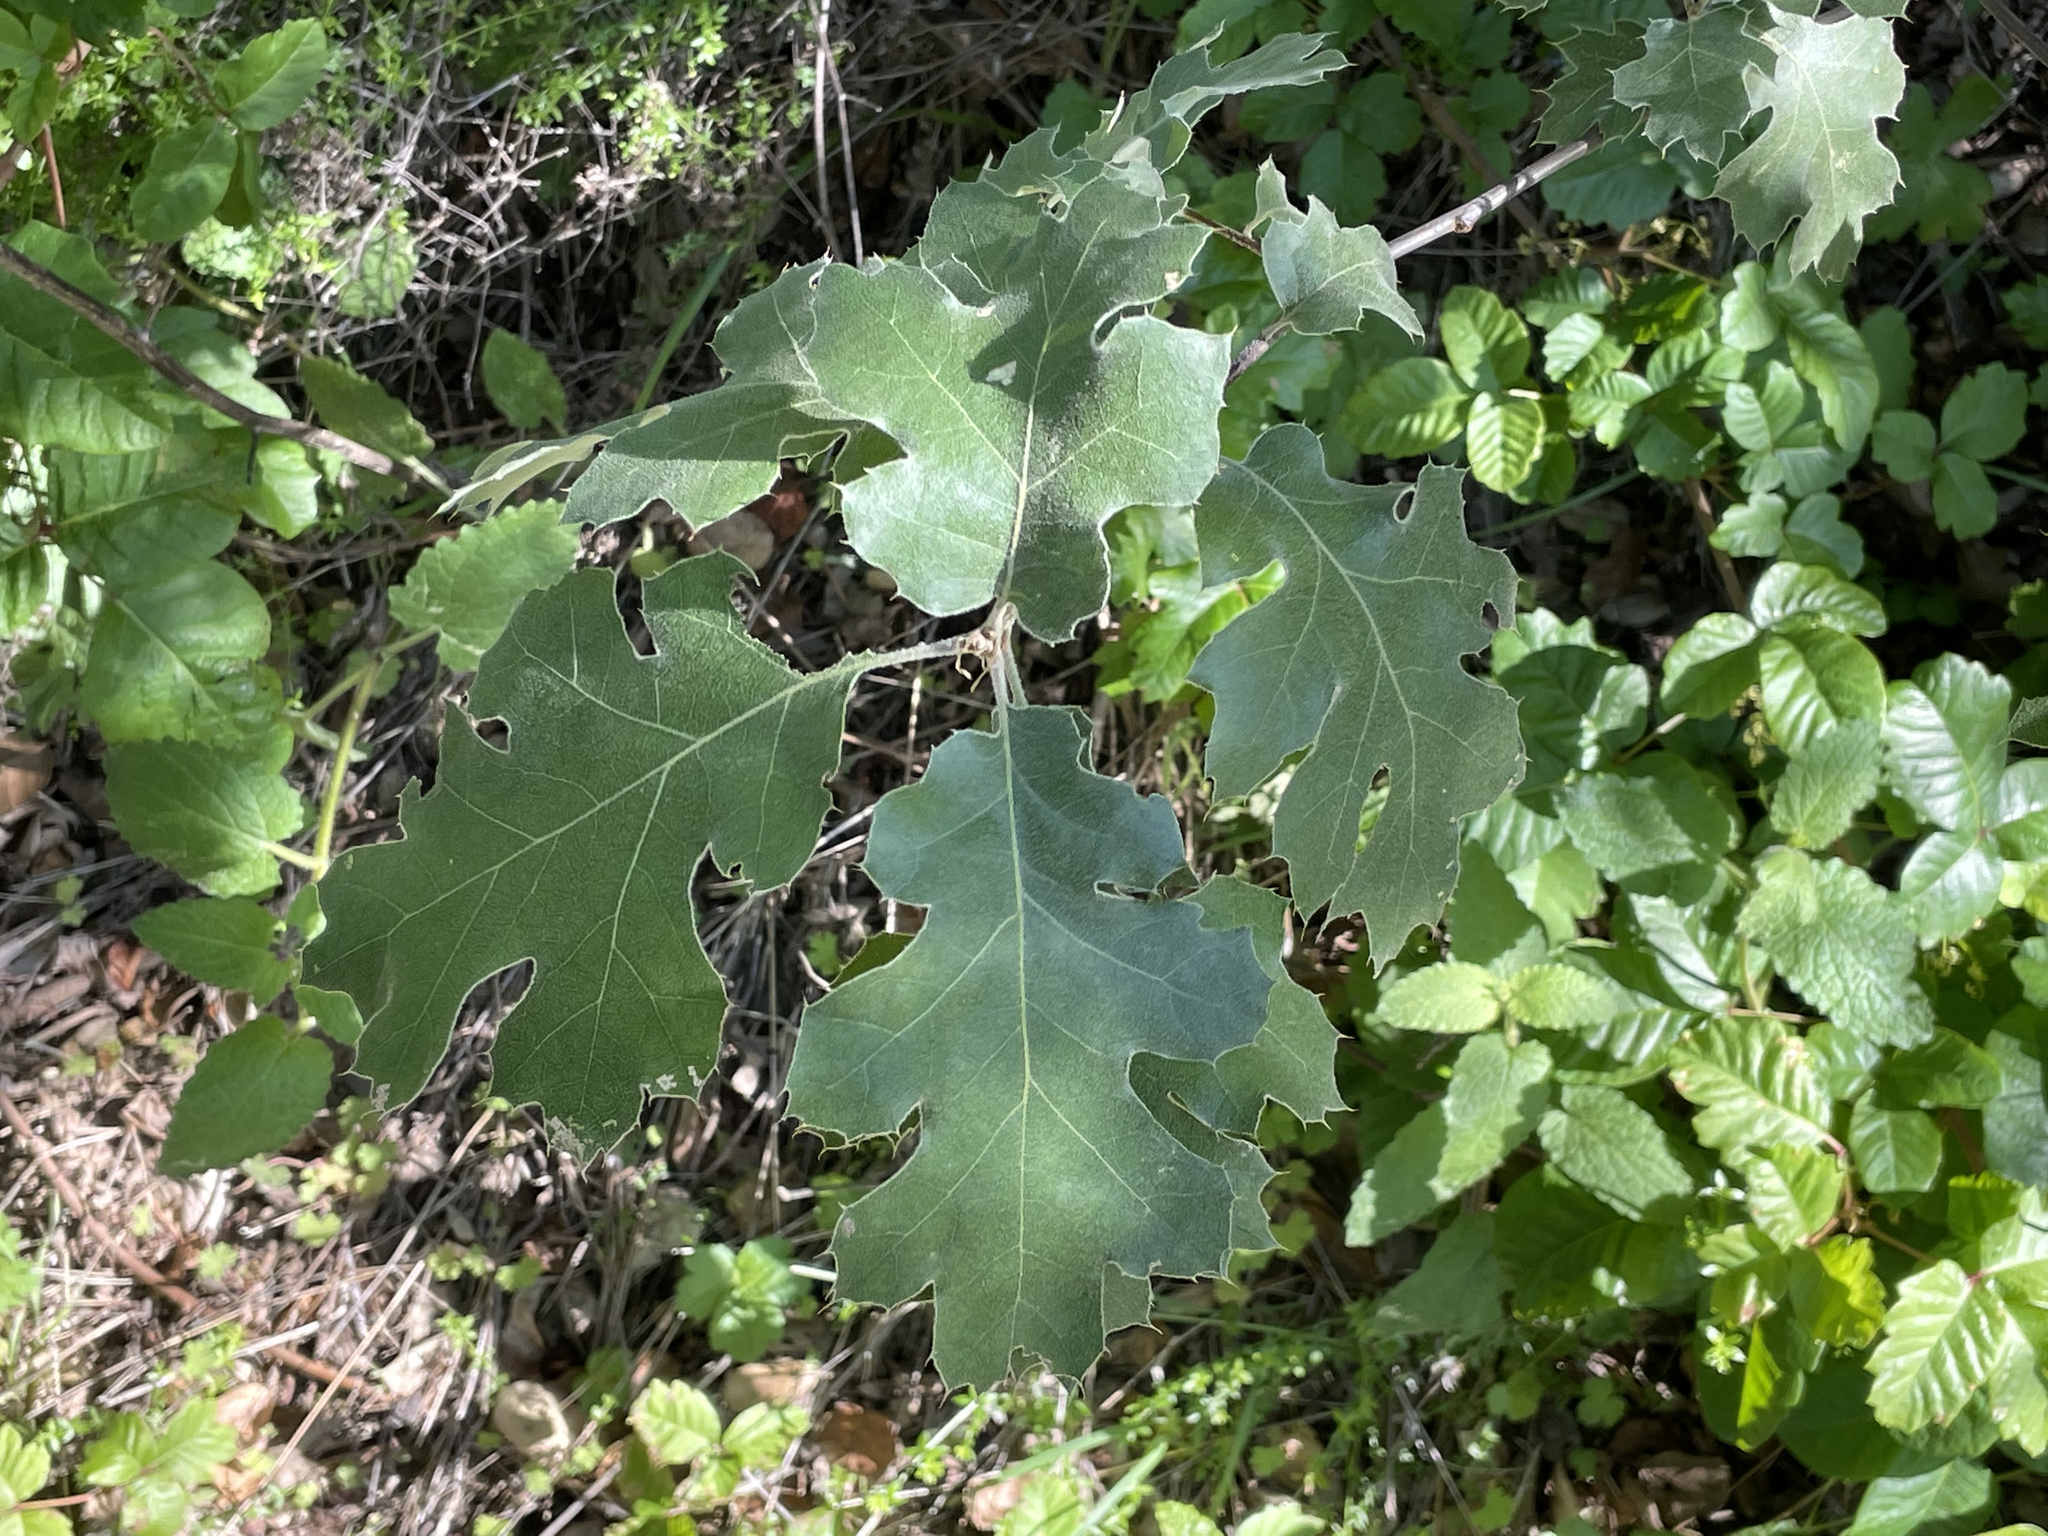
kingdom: Plantae
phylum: Tracheophyta
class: Magnoliopsida
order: Fagales
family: Fagaceae
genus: Quercus
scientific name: Quercus kelloggii
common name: California black oak
